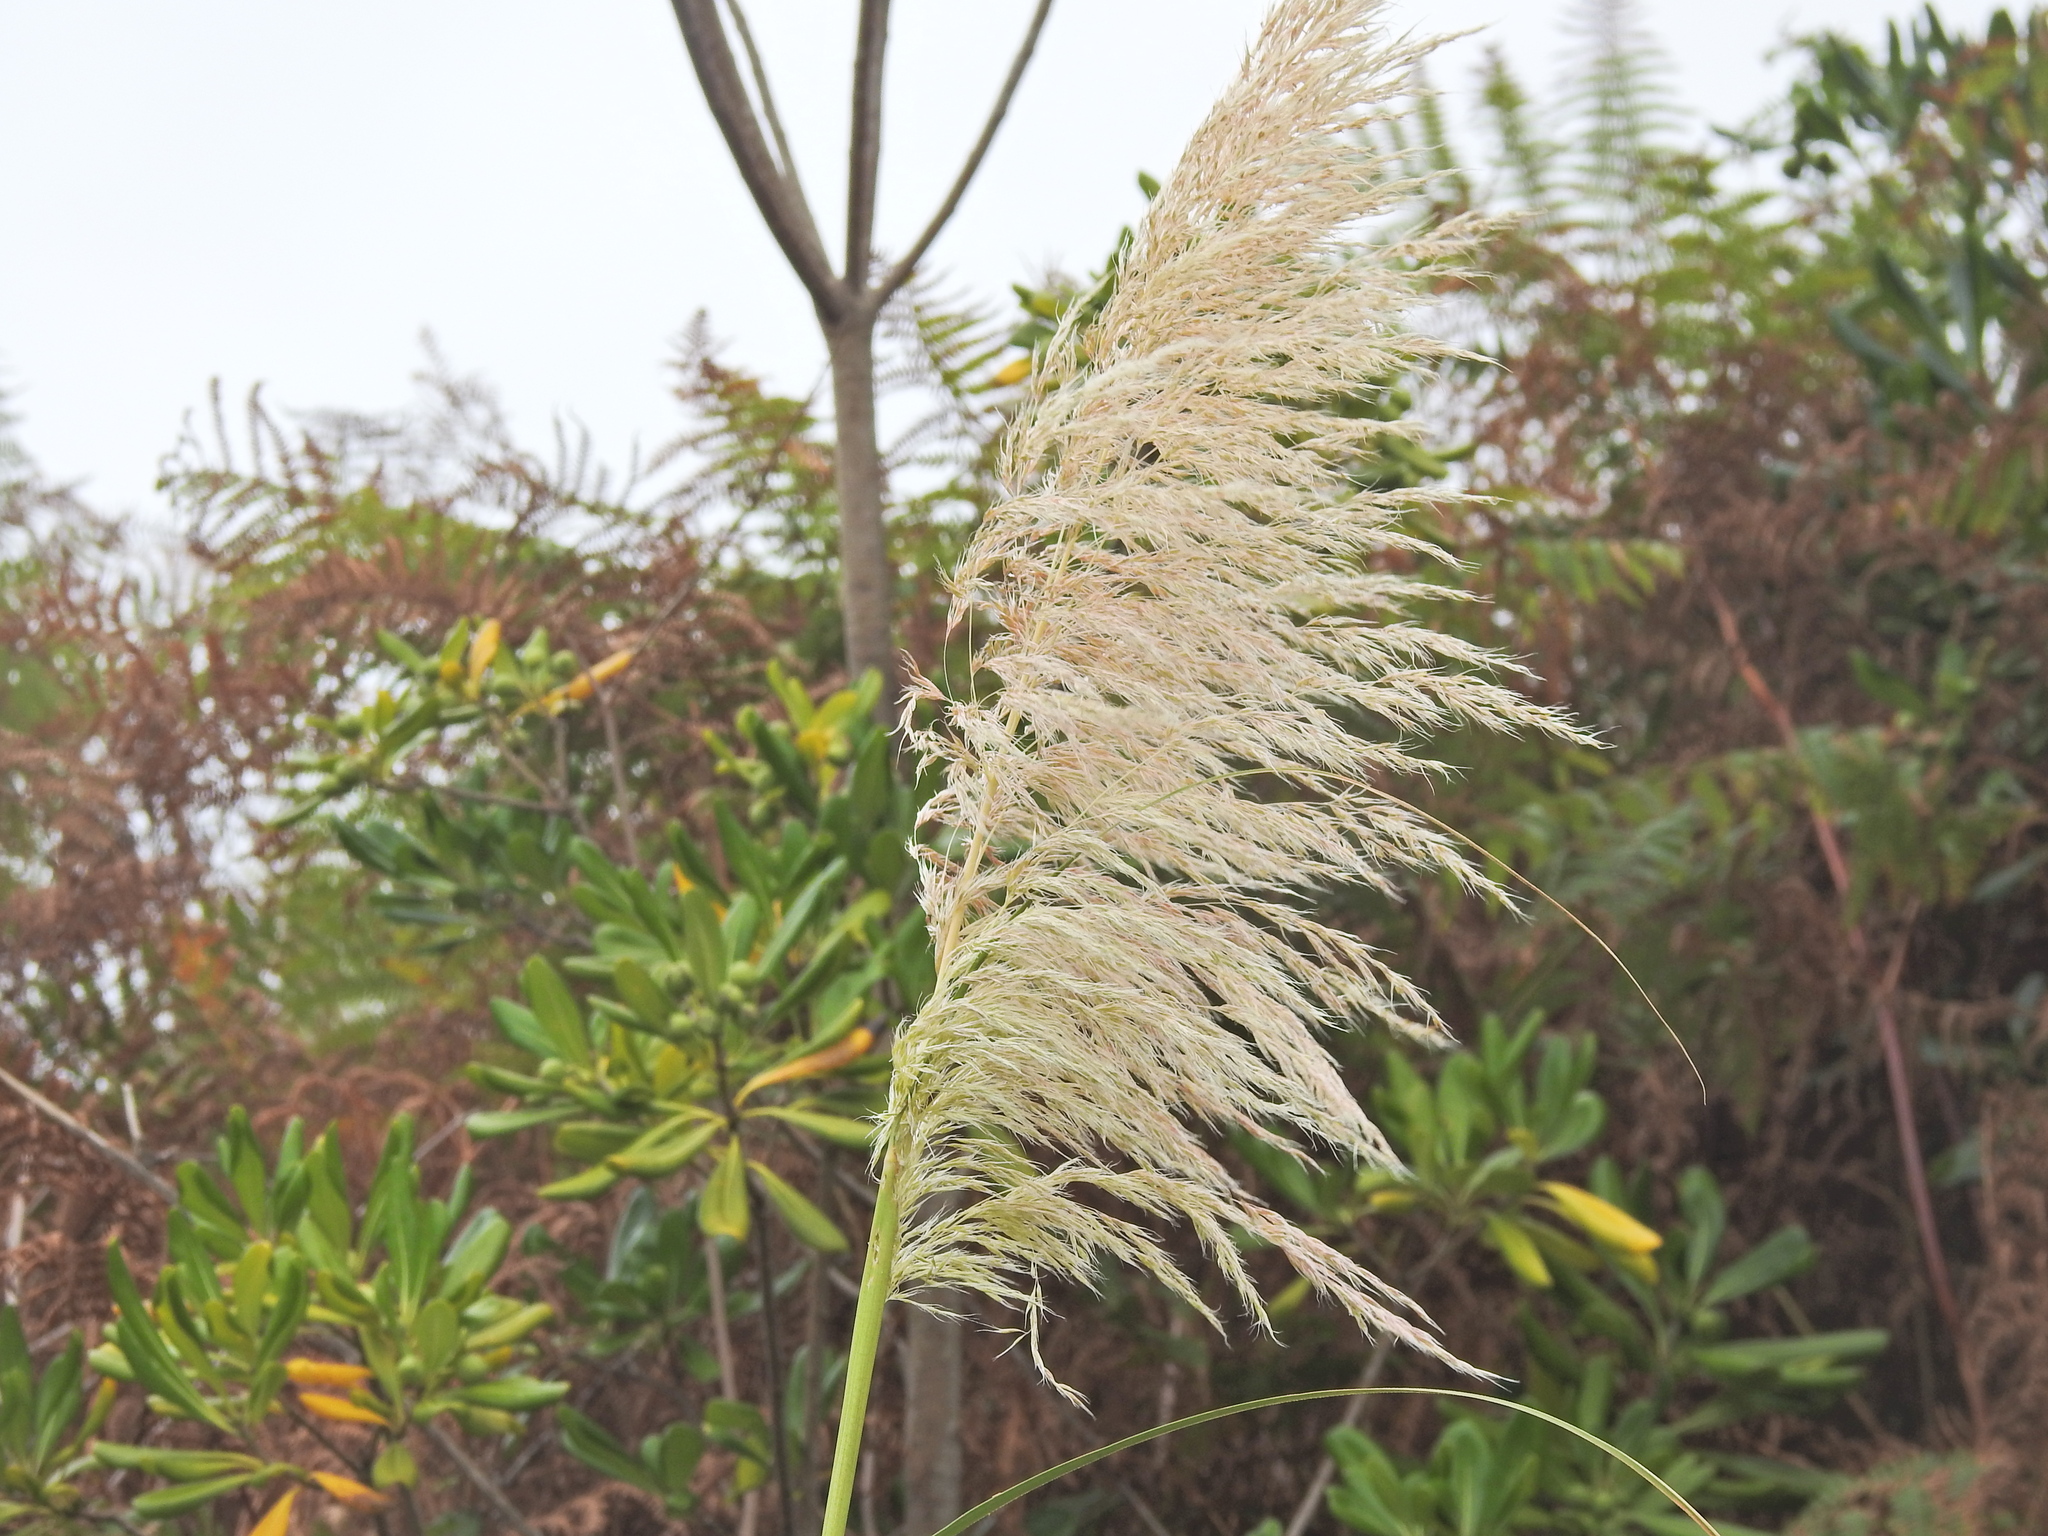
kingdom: Plantae
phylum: Tracheophyta
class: Liliopsida
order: Poales
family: Poaceae
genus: Cortaderia
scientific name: Cortaderia selloana
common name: Uruguayan pampas grass
